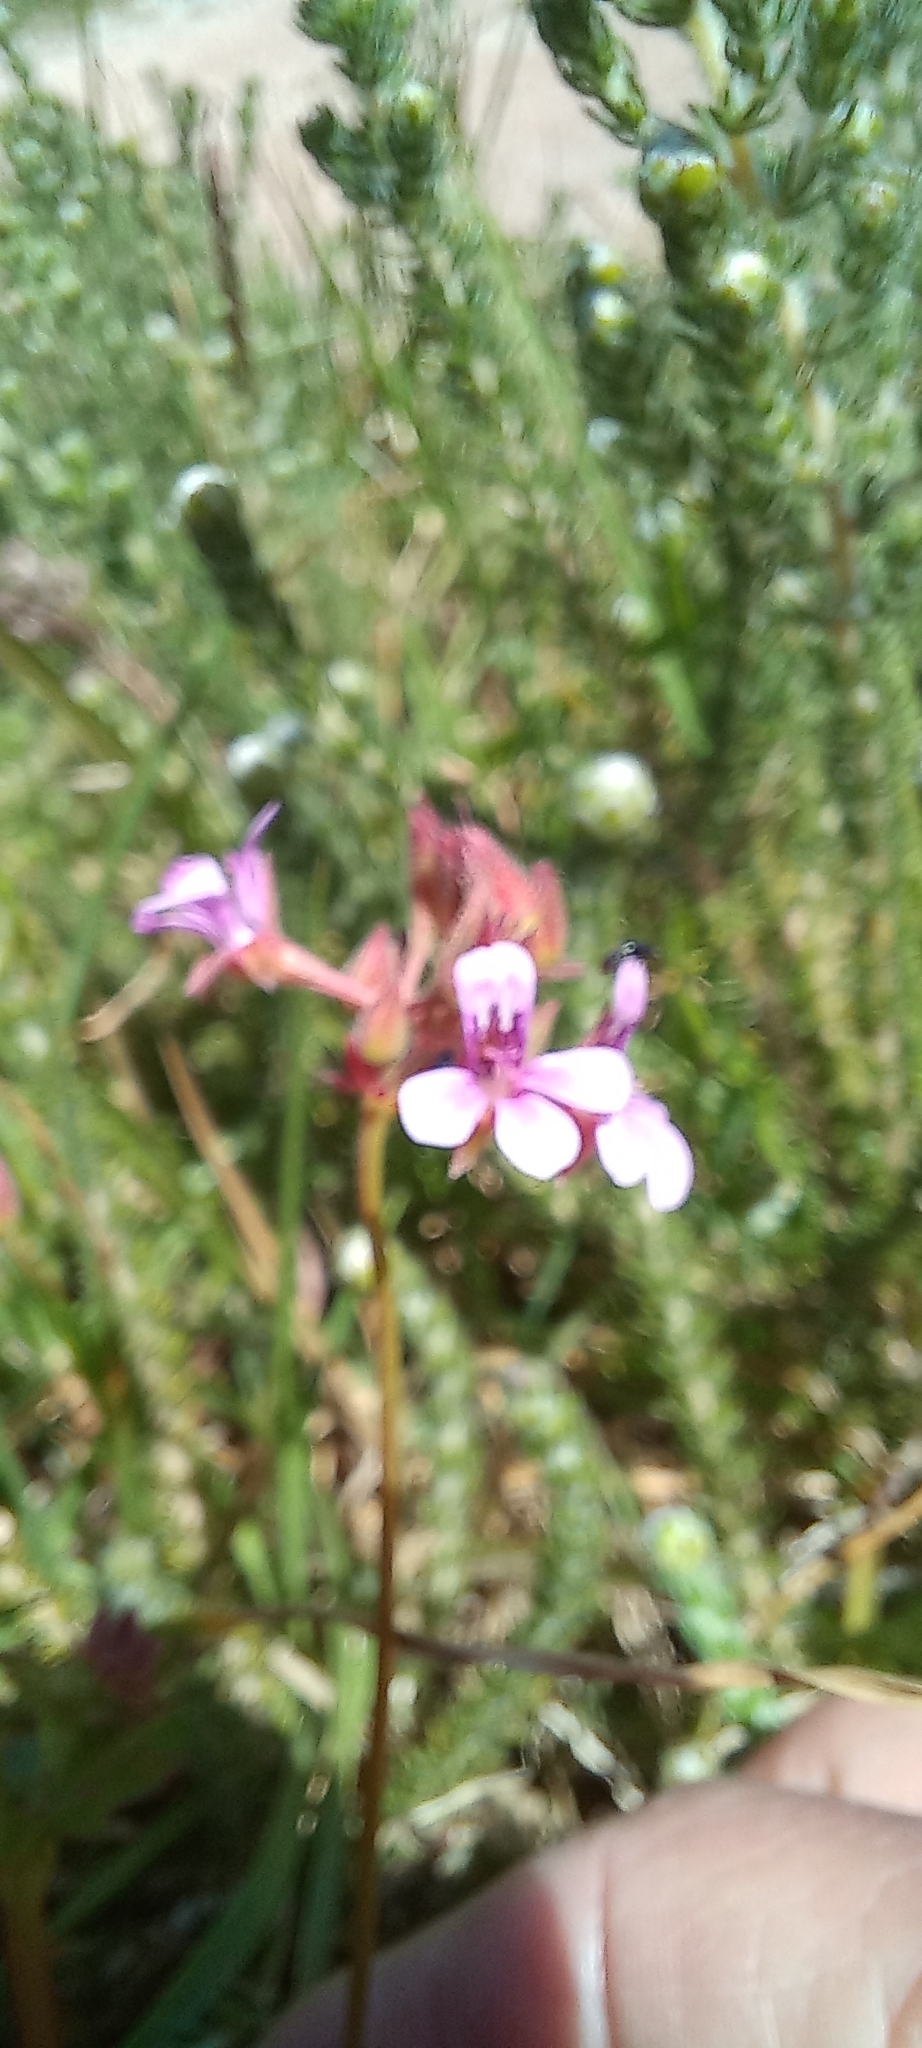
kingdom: Plantae
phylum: Tracheophyta
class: Magnoliopsida
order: Geraniales
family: Geraniaceae
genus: Pelargonium
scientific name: Pelargonium grossularioides
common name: Gooseberry geranium
